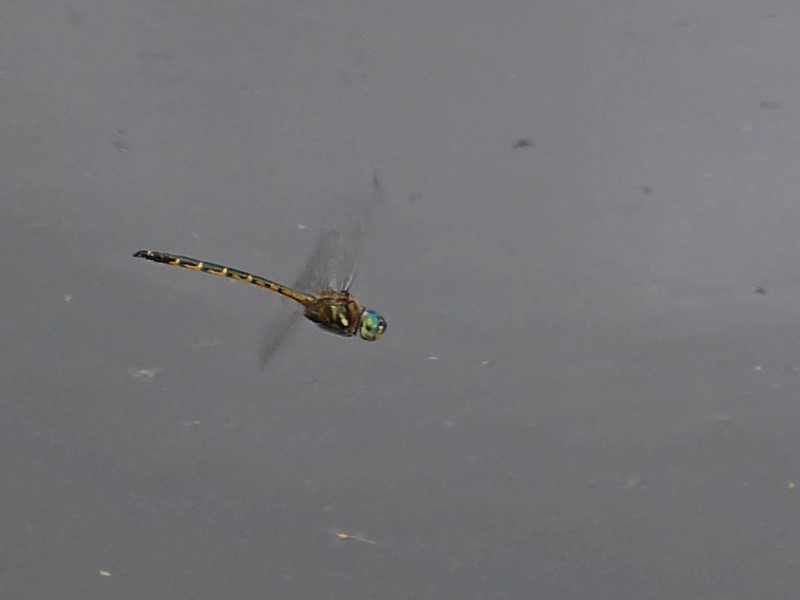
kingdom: Animalia
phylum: Arthropoda
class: Insecta
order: Odonata
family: Corduliidae
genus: Hemicordulia
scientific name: Hemicordulia australiae
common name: Sentry dragonfly
